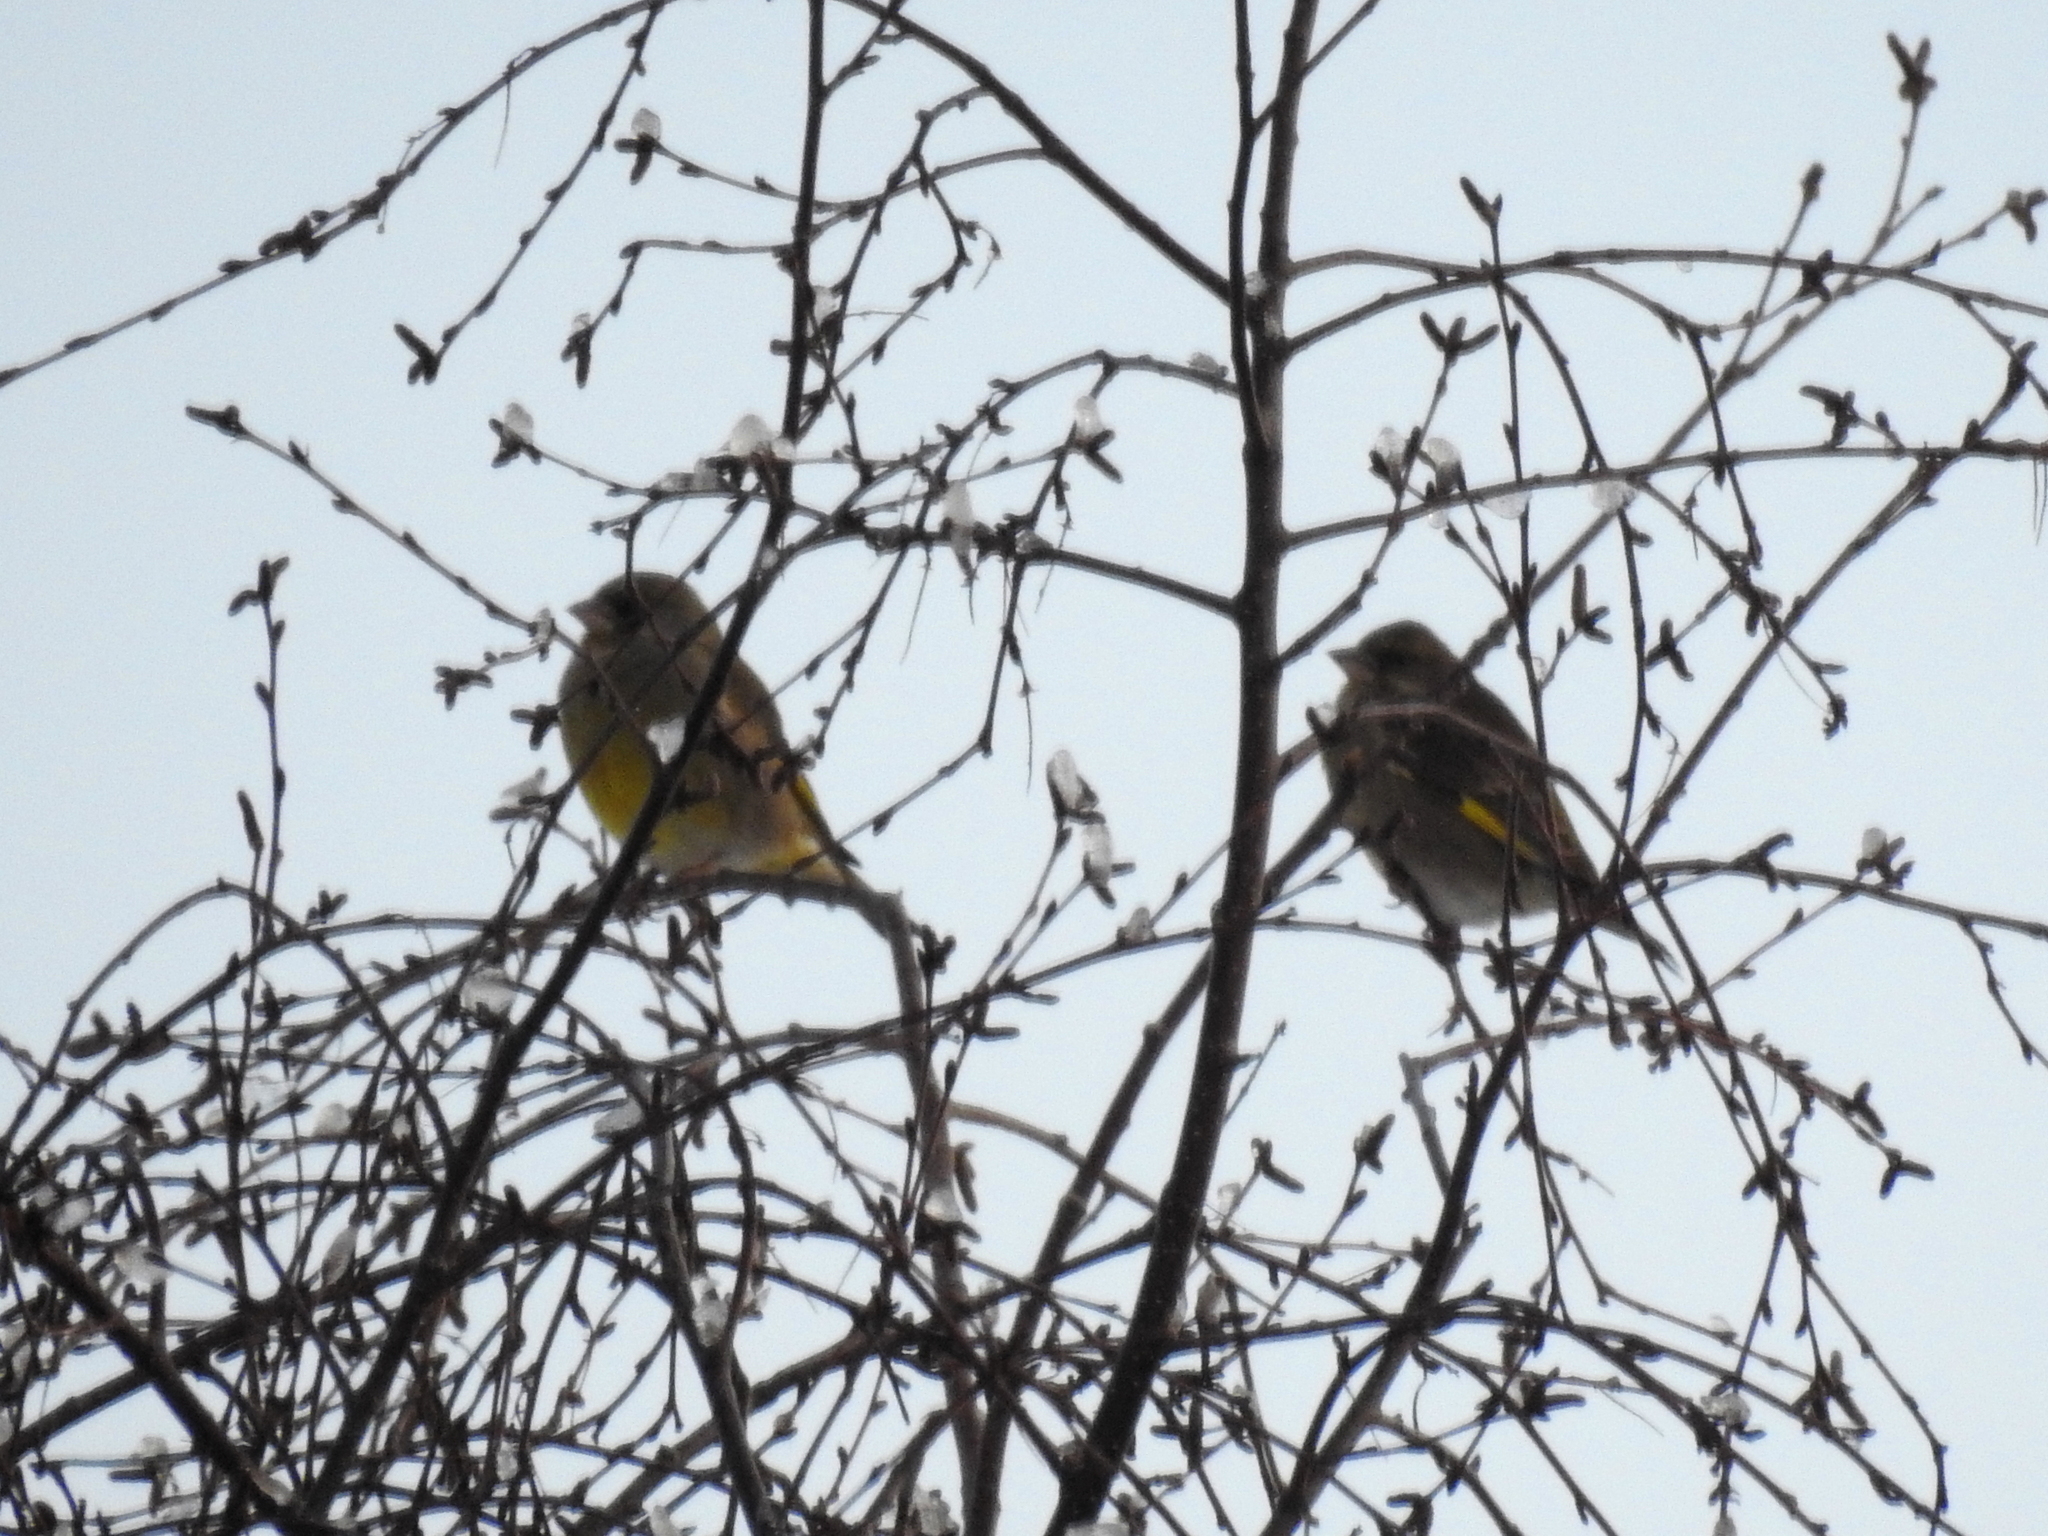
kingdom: Plantae
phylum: Tracheophyta
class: Liliopsida
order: Poales
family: Poaceae
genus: Chloris
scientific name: Chloris chloris
